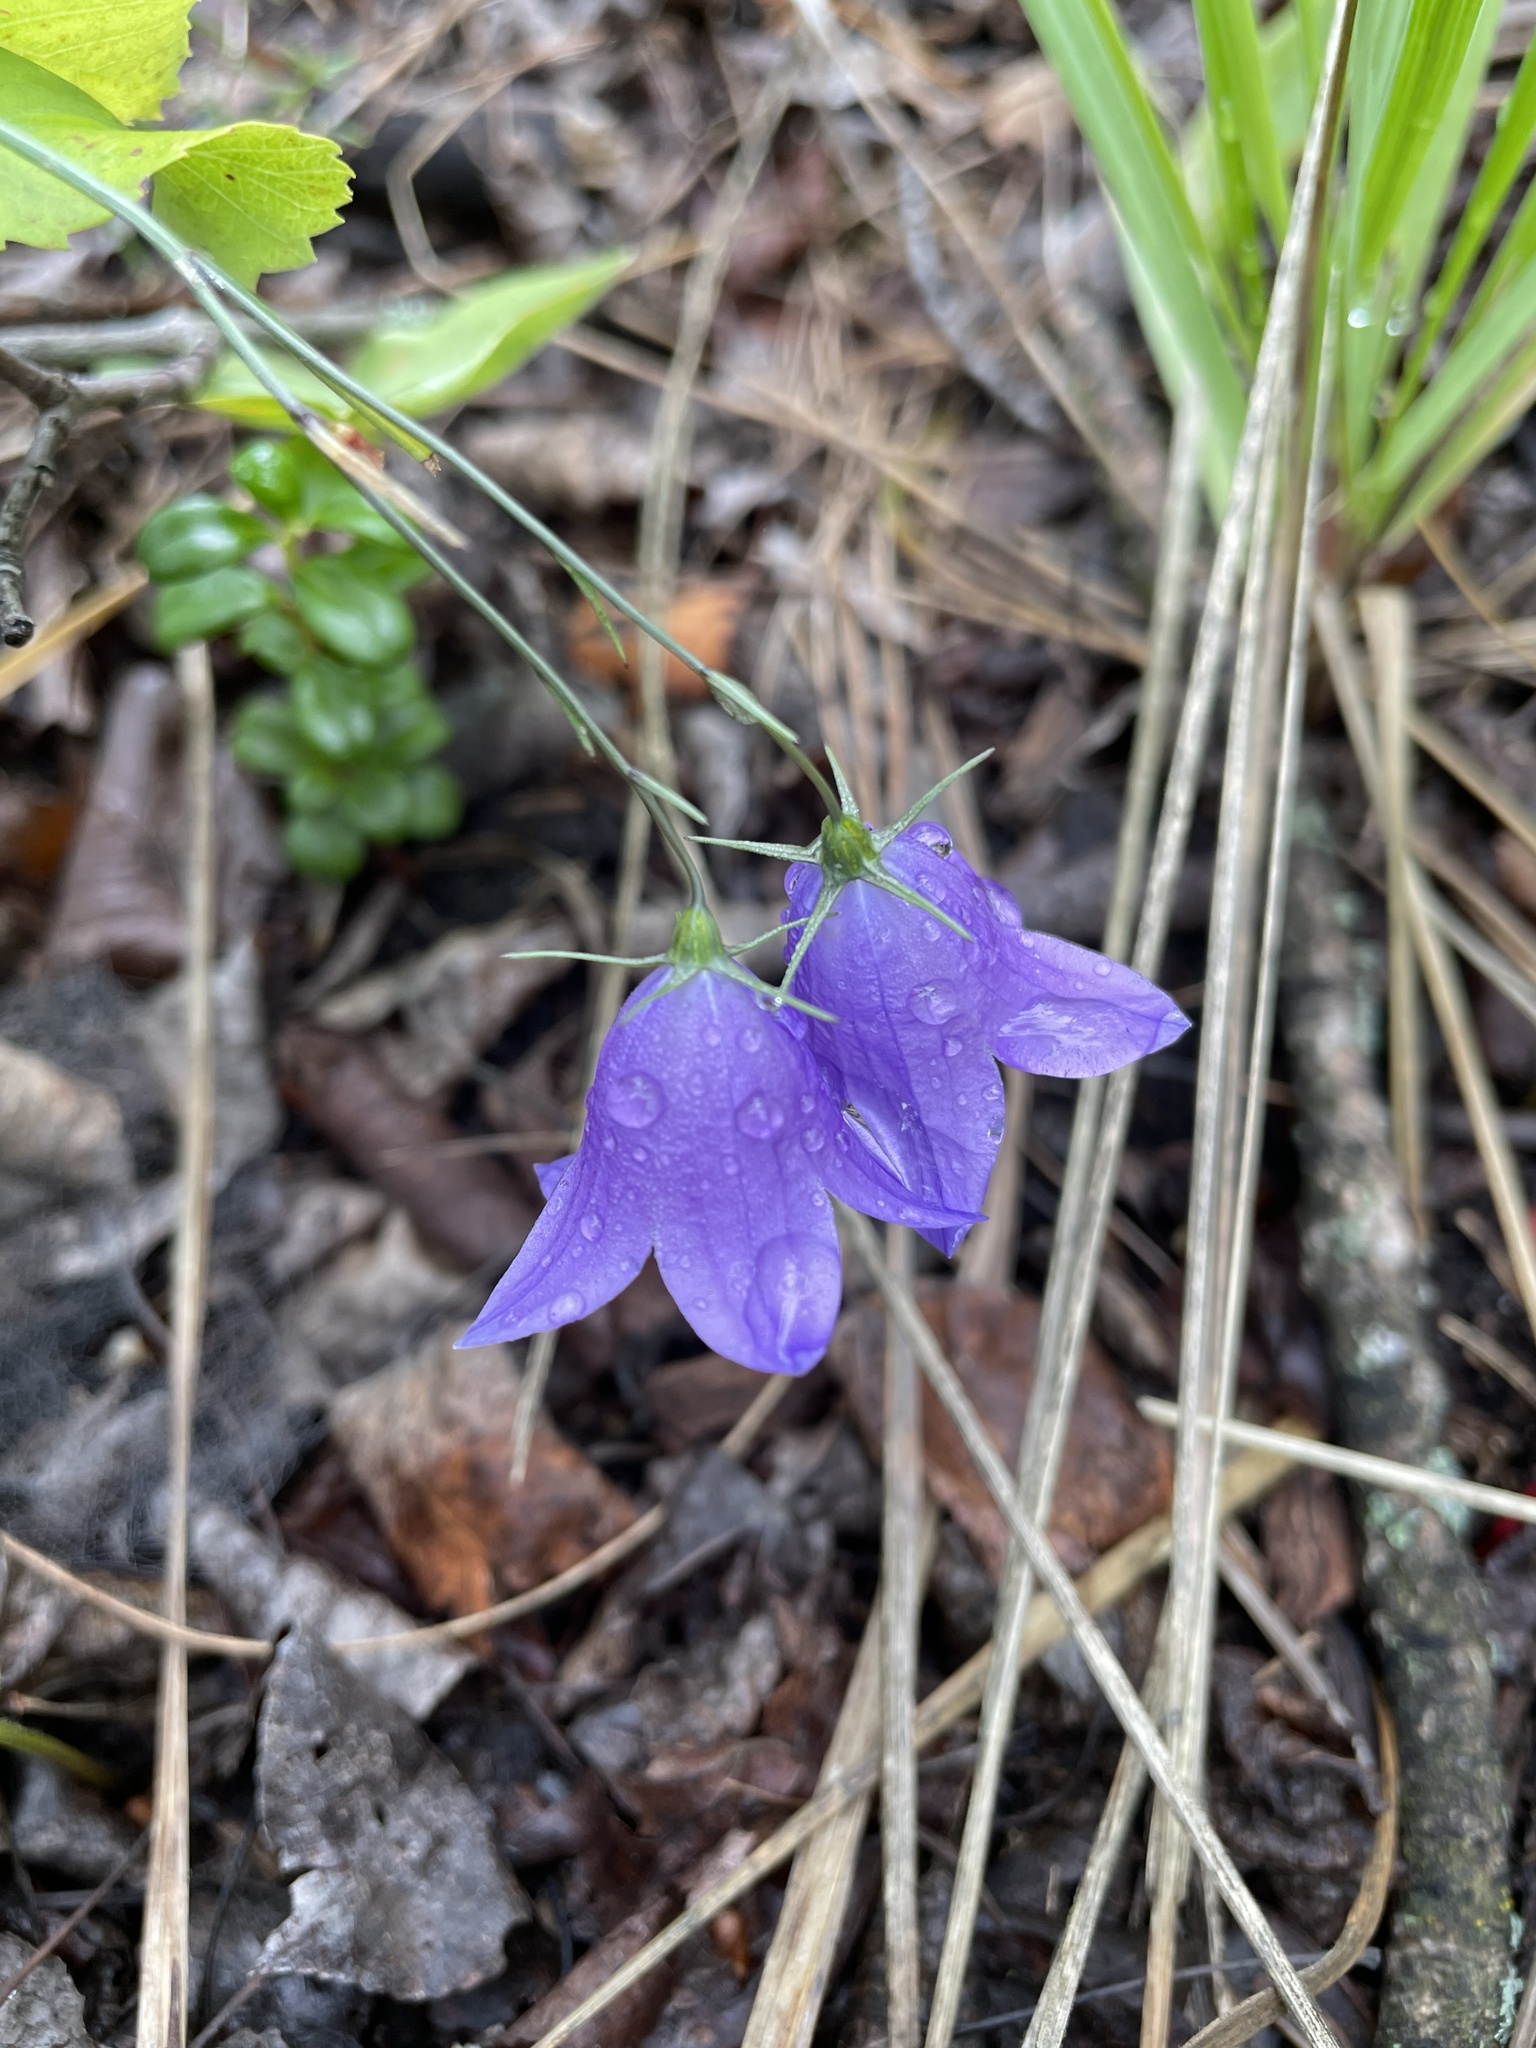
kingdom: Plantae
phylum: Tracheophyta
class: Magnoliopsida
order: Asterales
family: Campanulaceae
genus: Campanula
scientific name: Campanula alaskana
